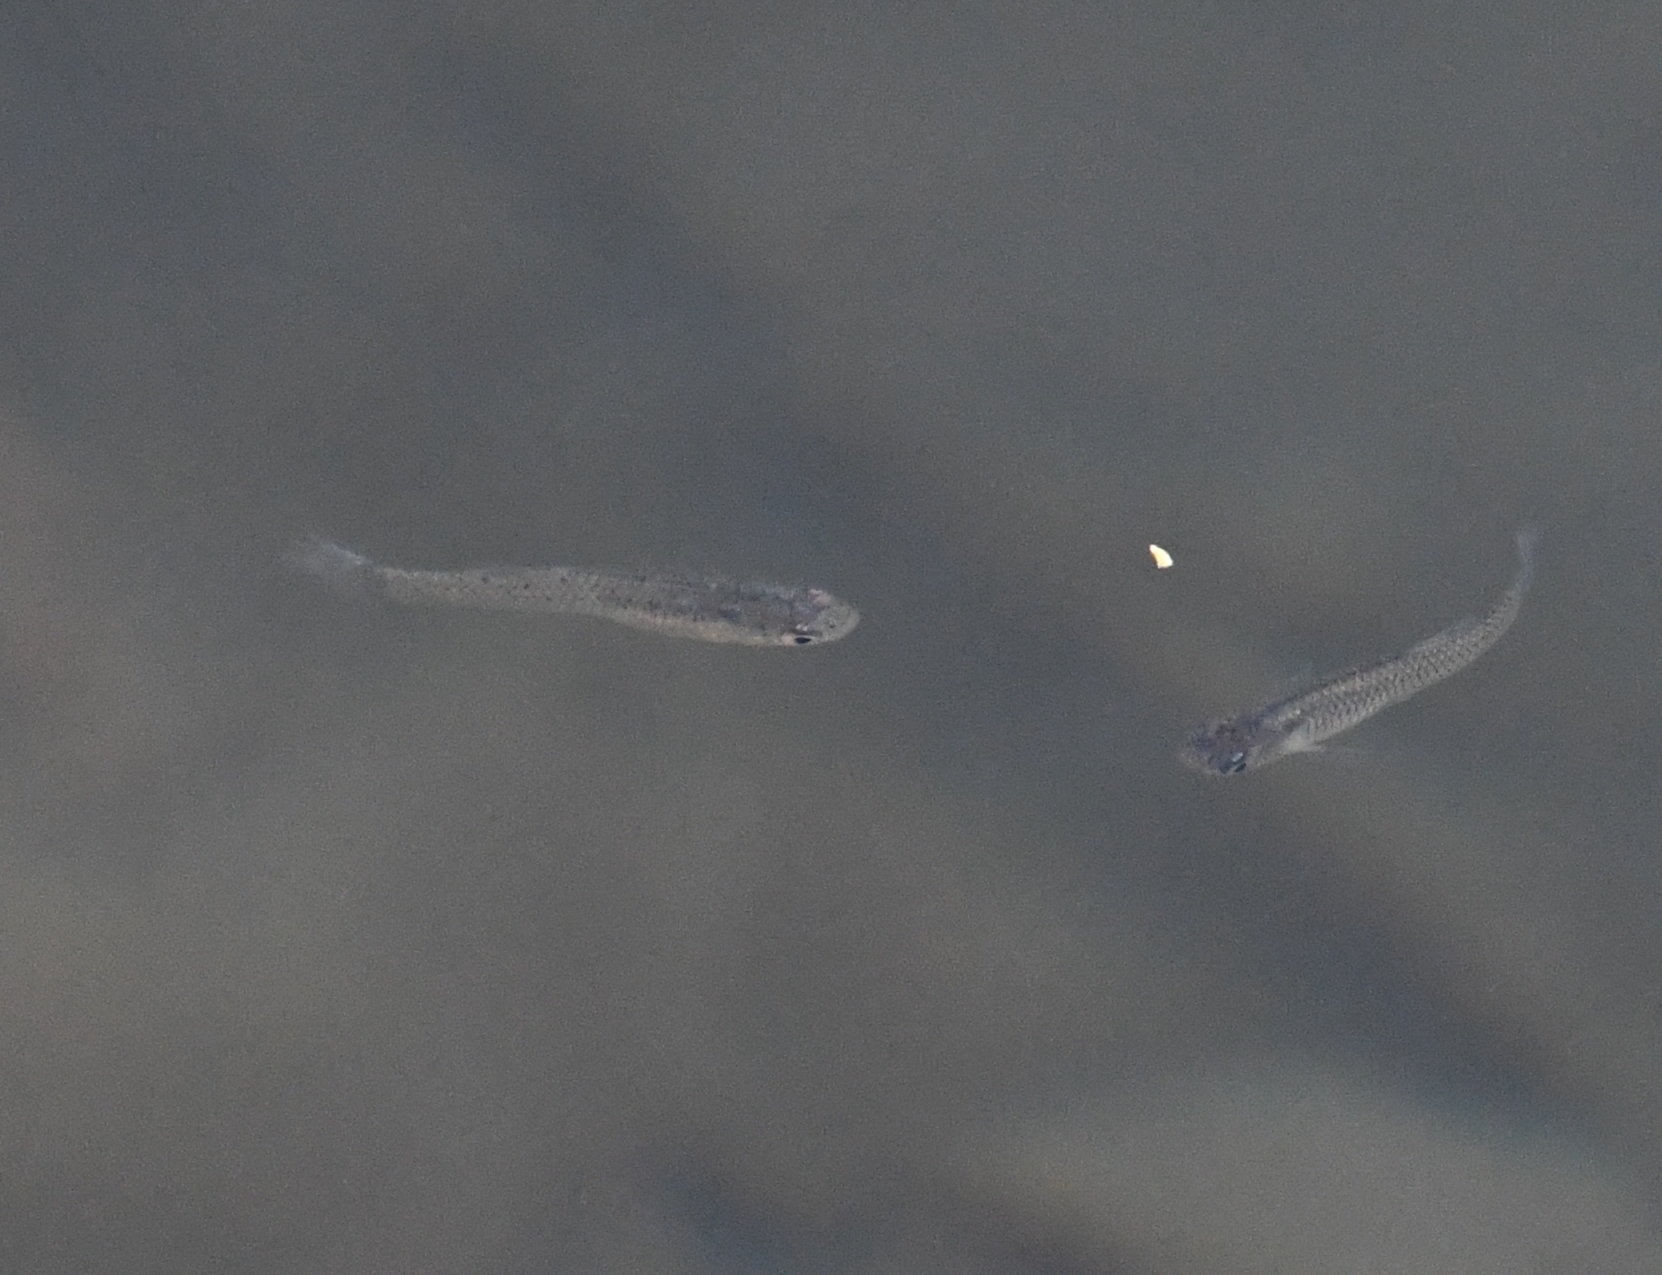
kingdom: Animalia
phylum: Chordata
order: Cyprinodontiformes
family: Poeciliidae
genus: Gambusia
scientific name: Gambusia affinis
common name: Mosquitofish
